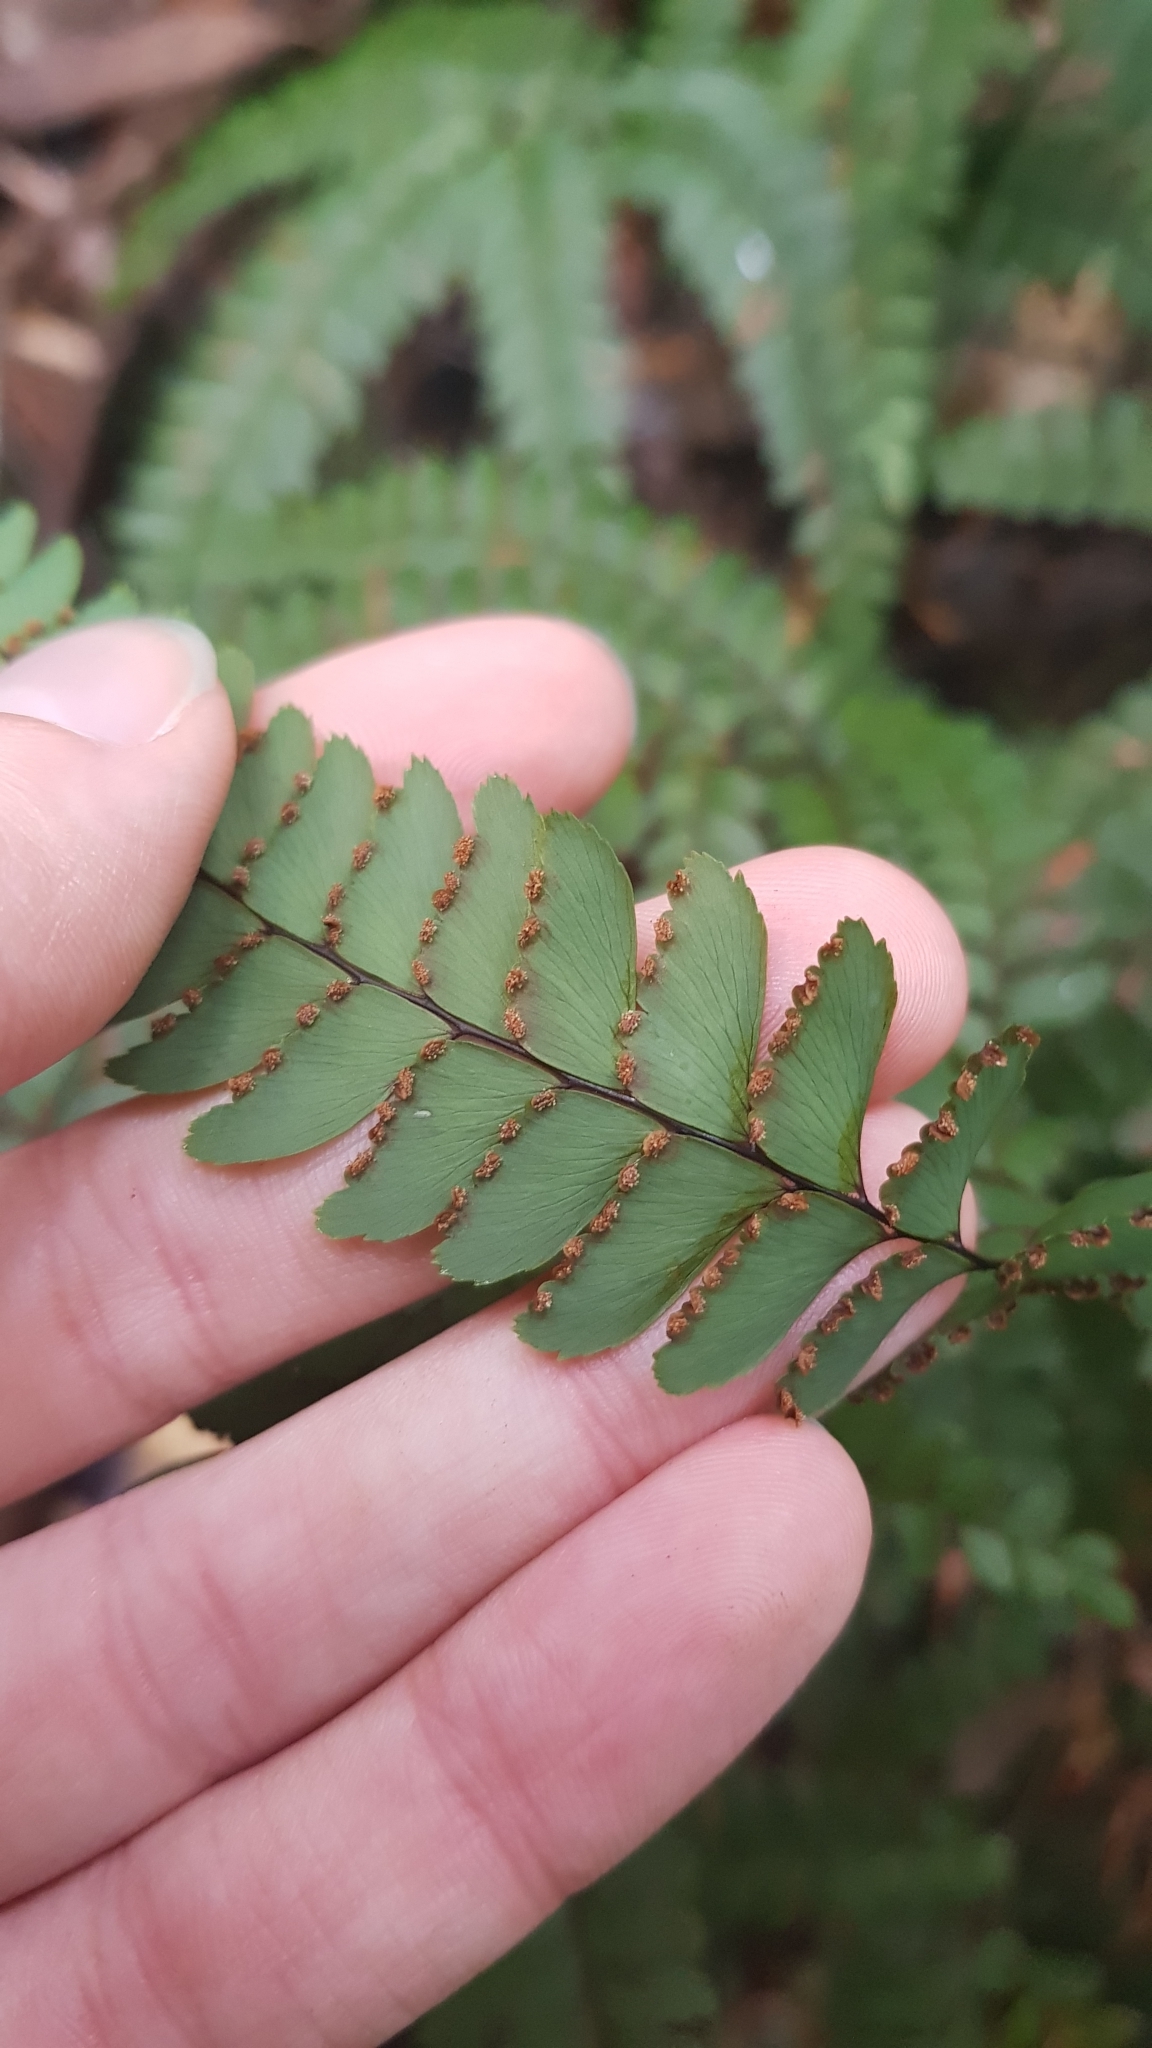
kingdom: Plantae
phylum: Tracheophyta
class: Polypodiopsida
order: Polypodiales
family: Pteridaceae
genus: Adiantum
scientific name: Adiantum silvaticum
